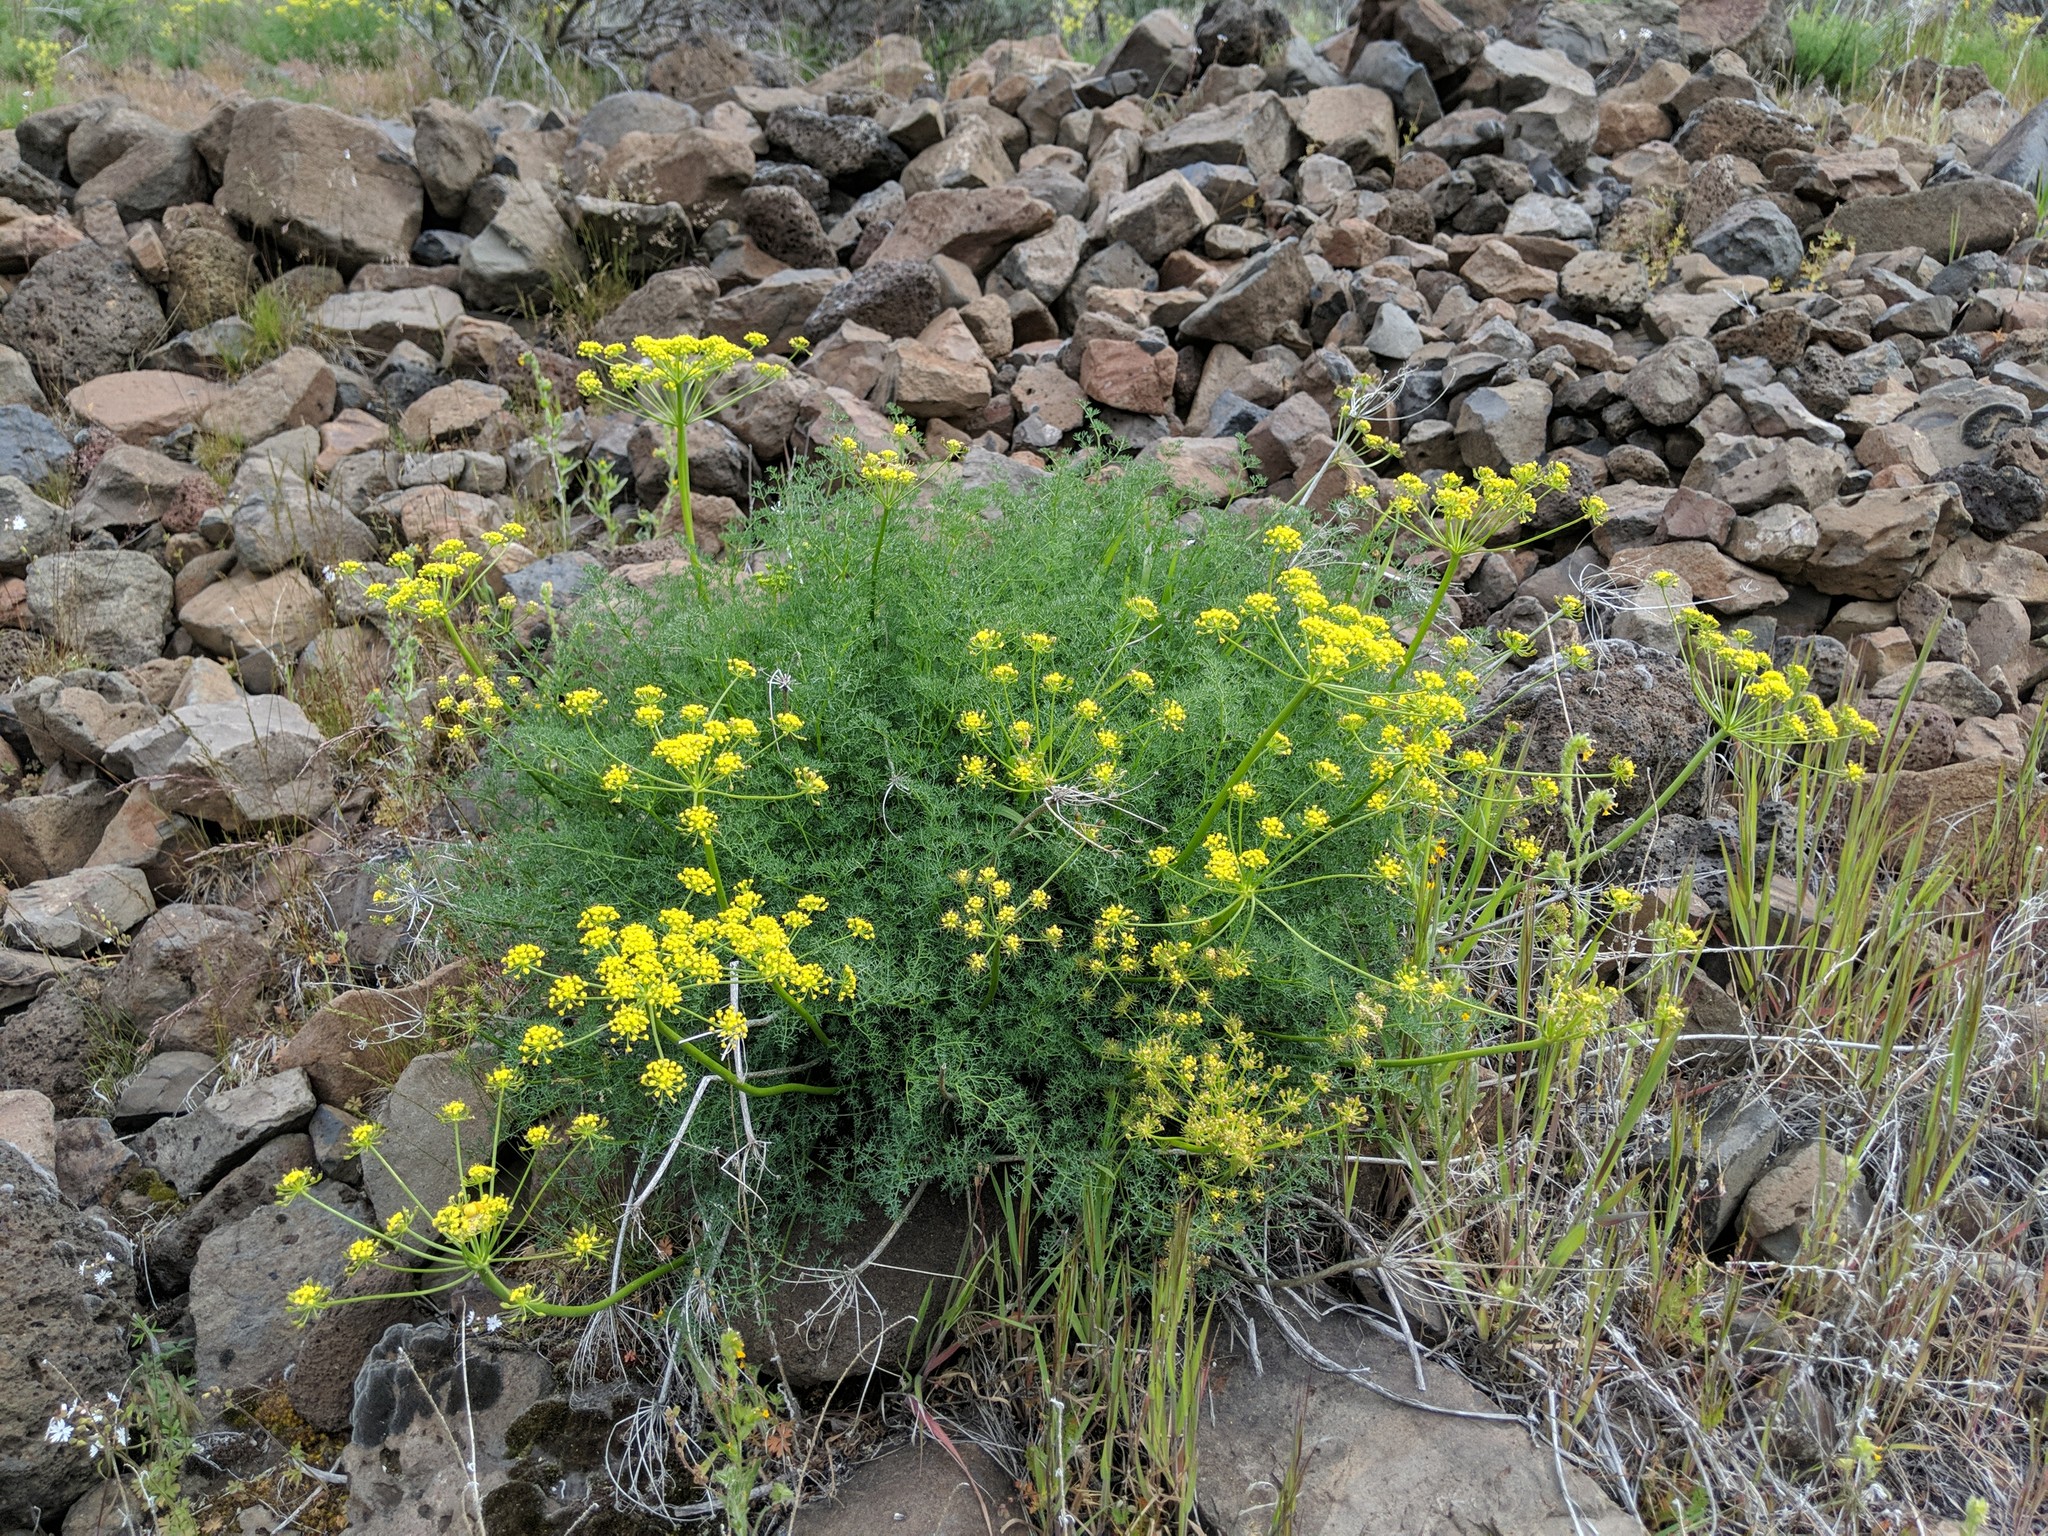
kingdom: Plantae
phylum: Tracheophyta
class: Magnoliopsida
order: Apiales
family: Apiaceae
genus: Lomatium
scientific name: Lomatium papilioniferum
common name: Butterfly lomatium
